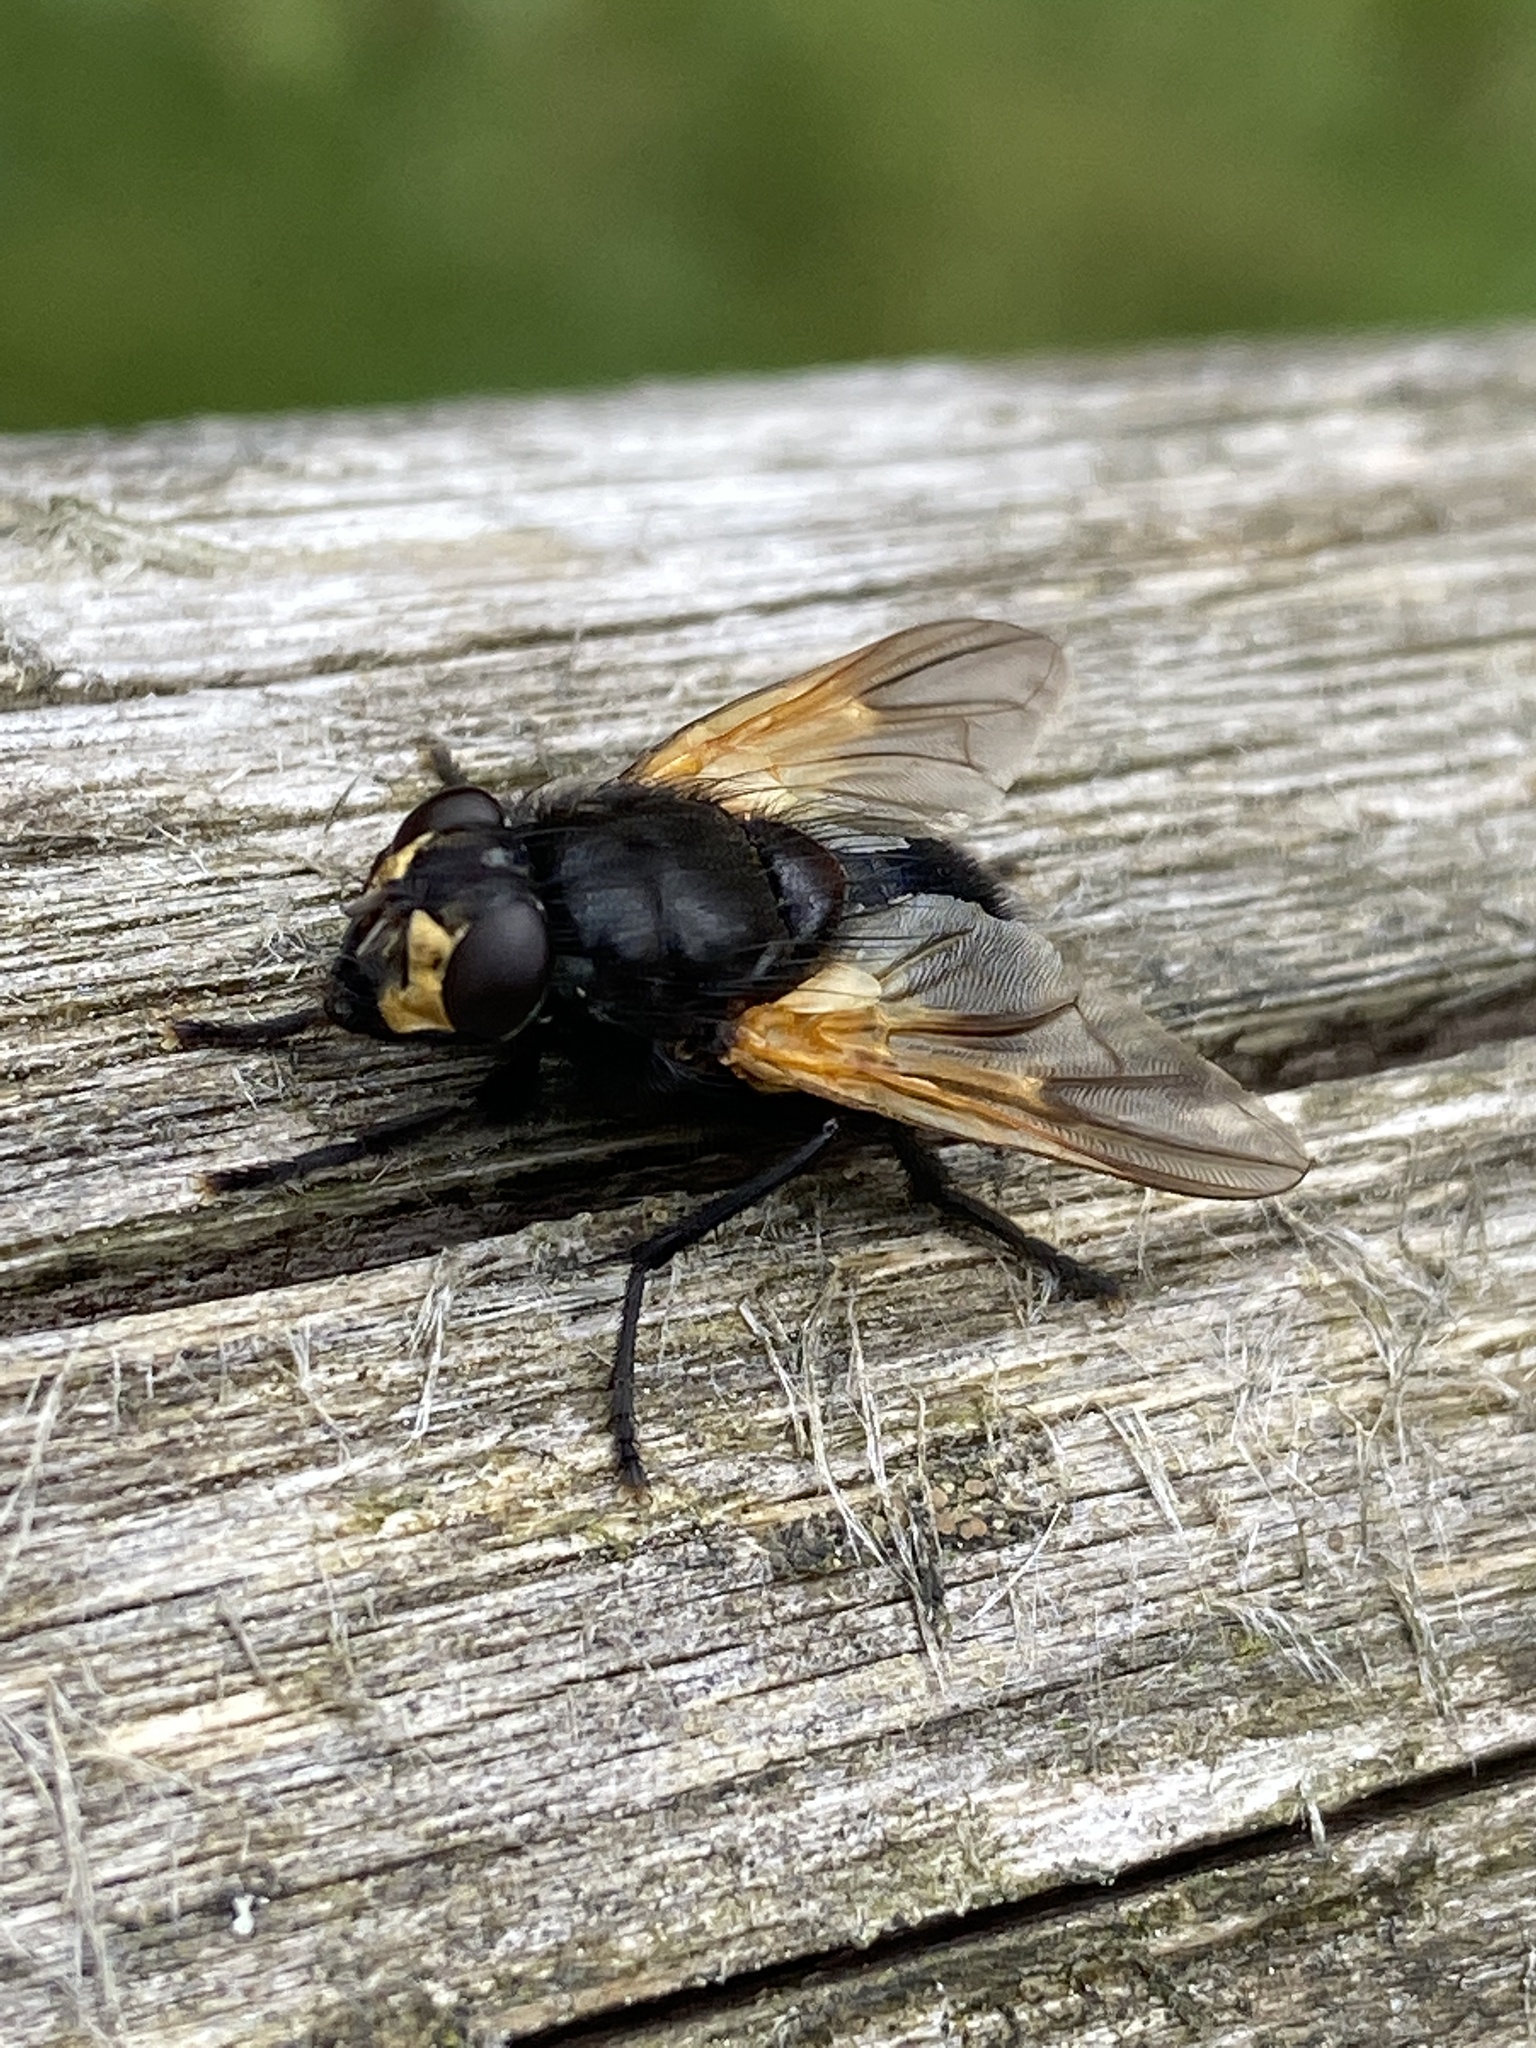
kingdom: Animalia
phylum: Arthropoda
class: Insecta
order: Diptera
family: Muscidae
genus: Mesembrina
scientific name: Mesembrina meridiana
